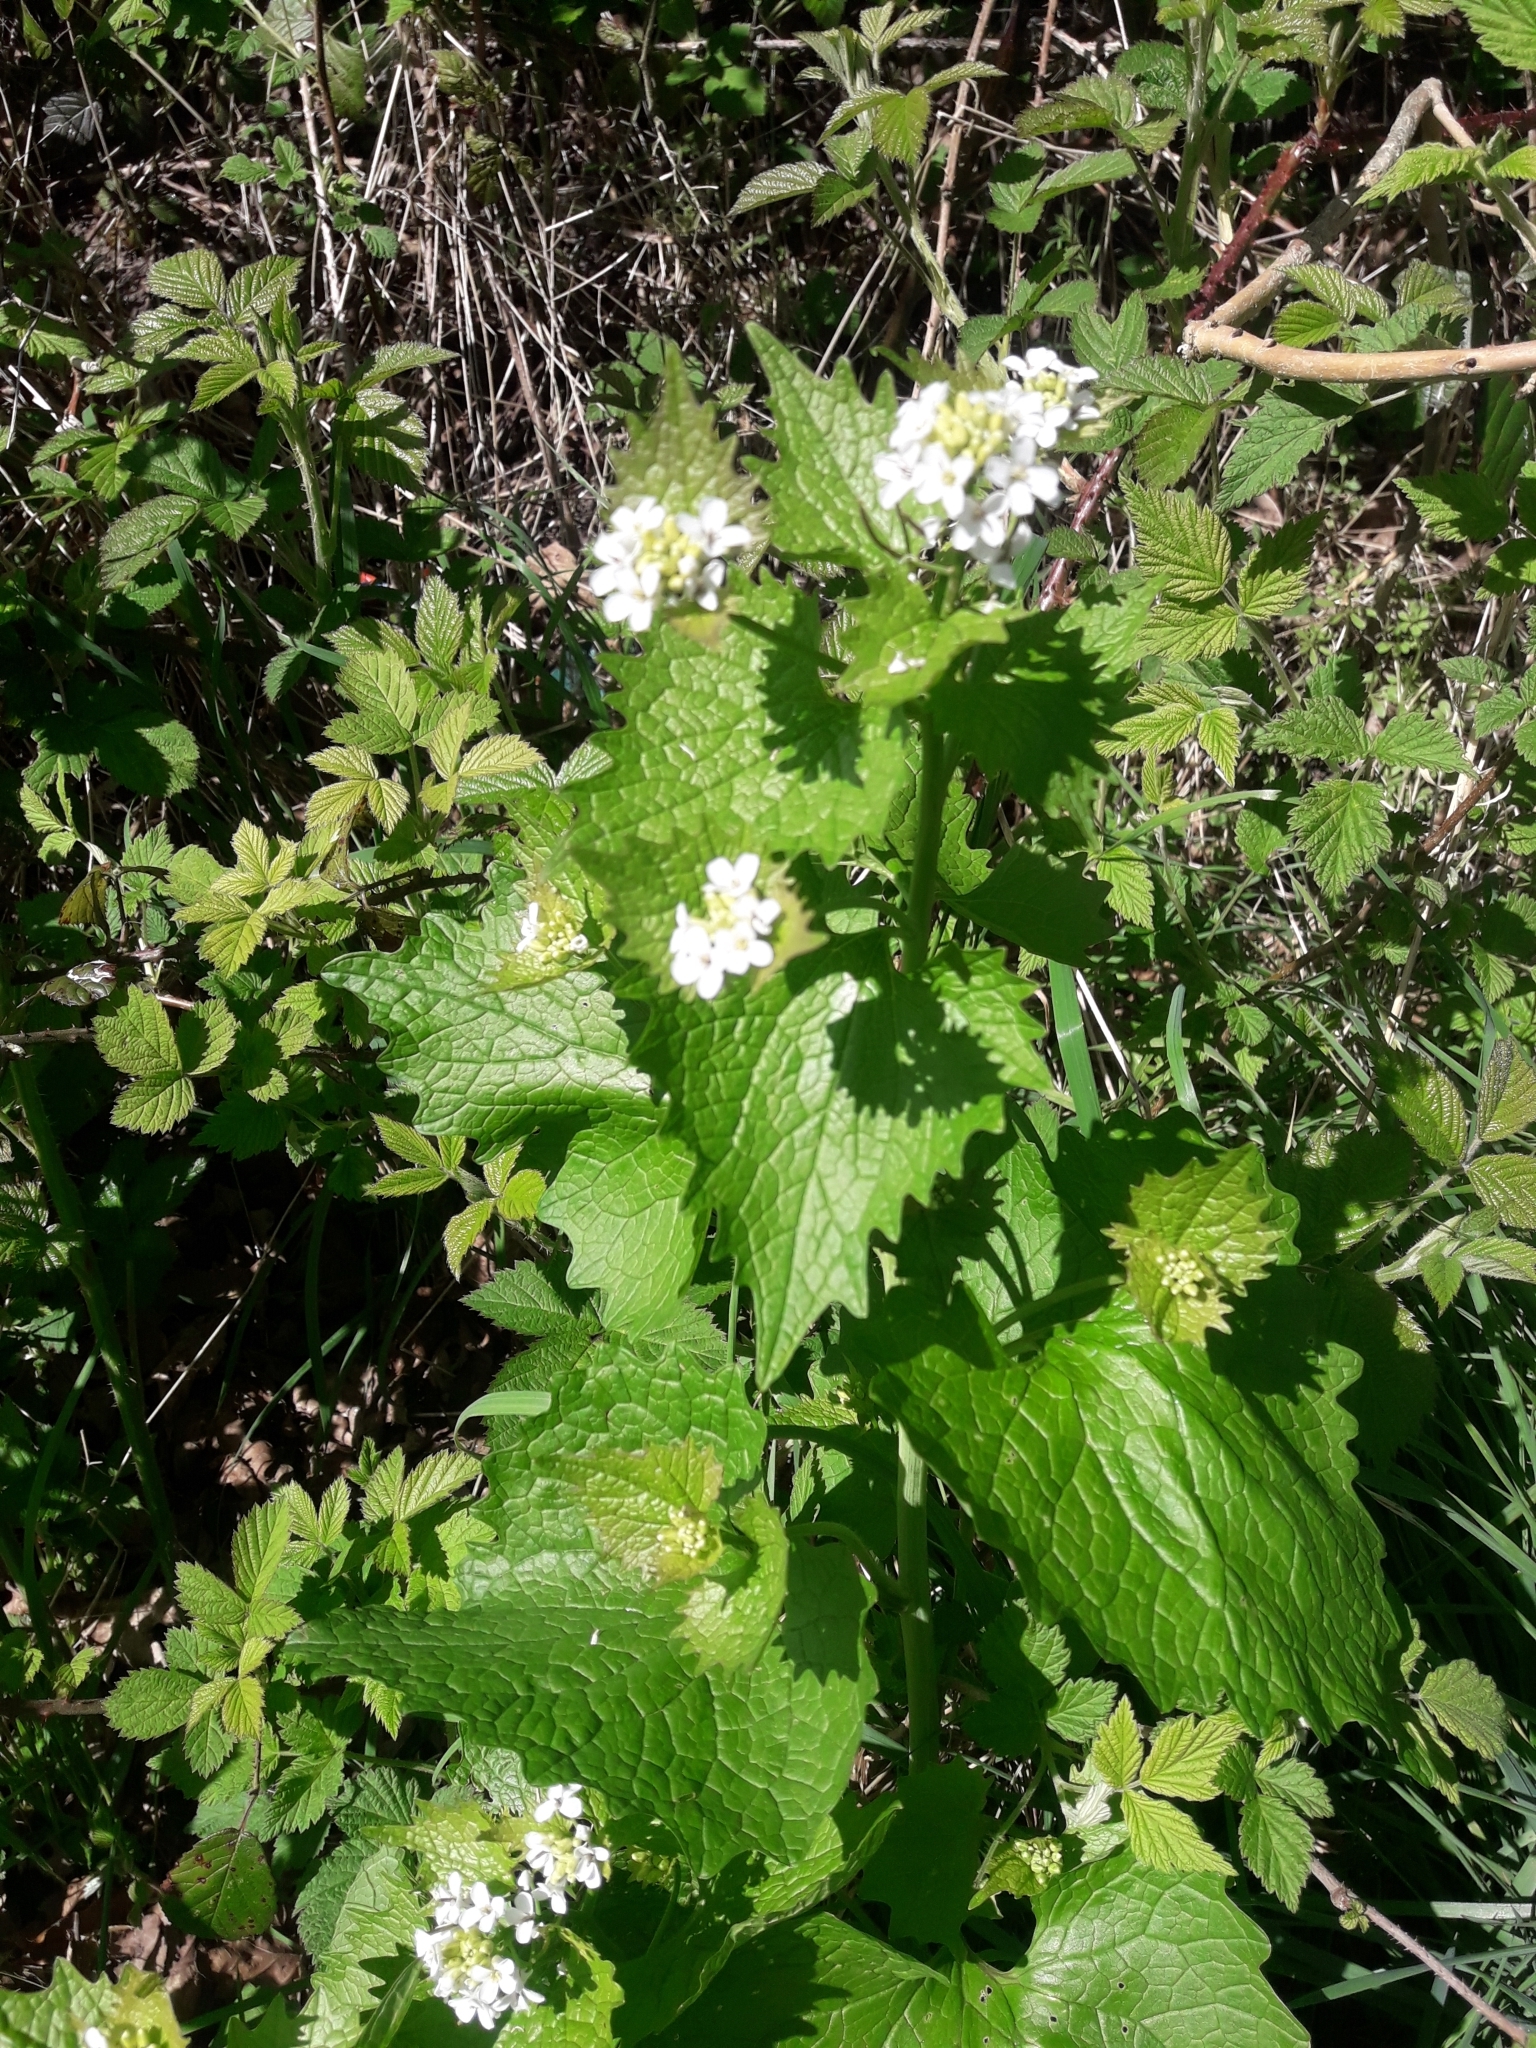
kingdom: Plantae
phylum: Tracheophyta
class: Magnoliopsida
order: Brassicales
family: Brassicaceae
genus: Alliaria
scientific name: Alliaria petiolata
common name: Garlic mustard
